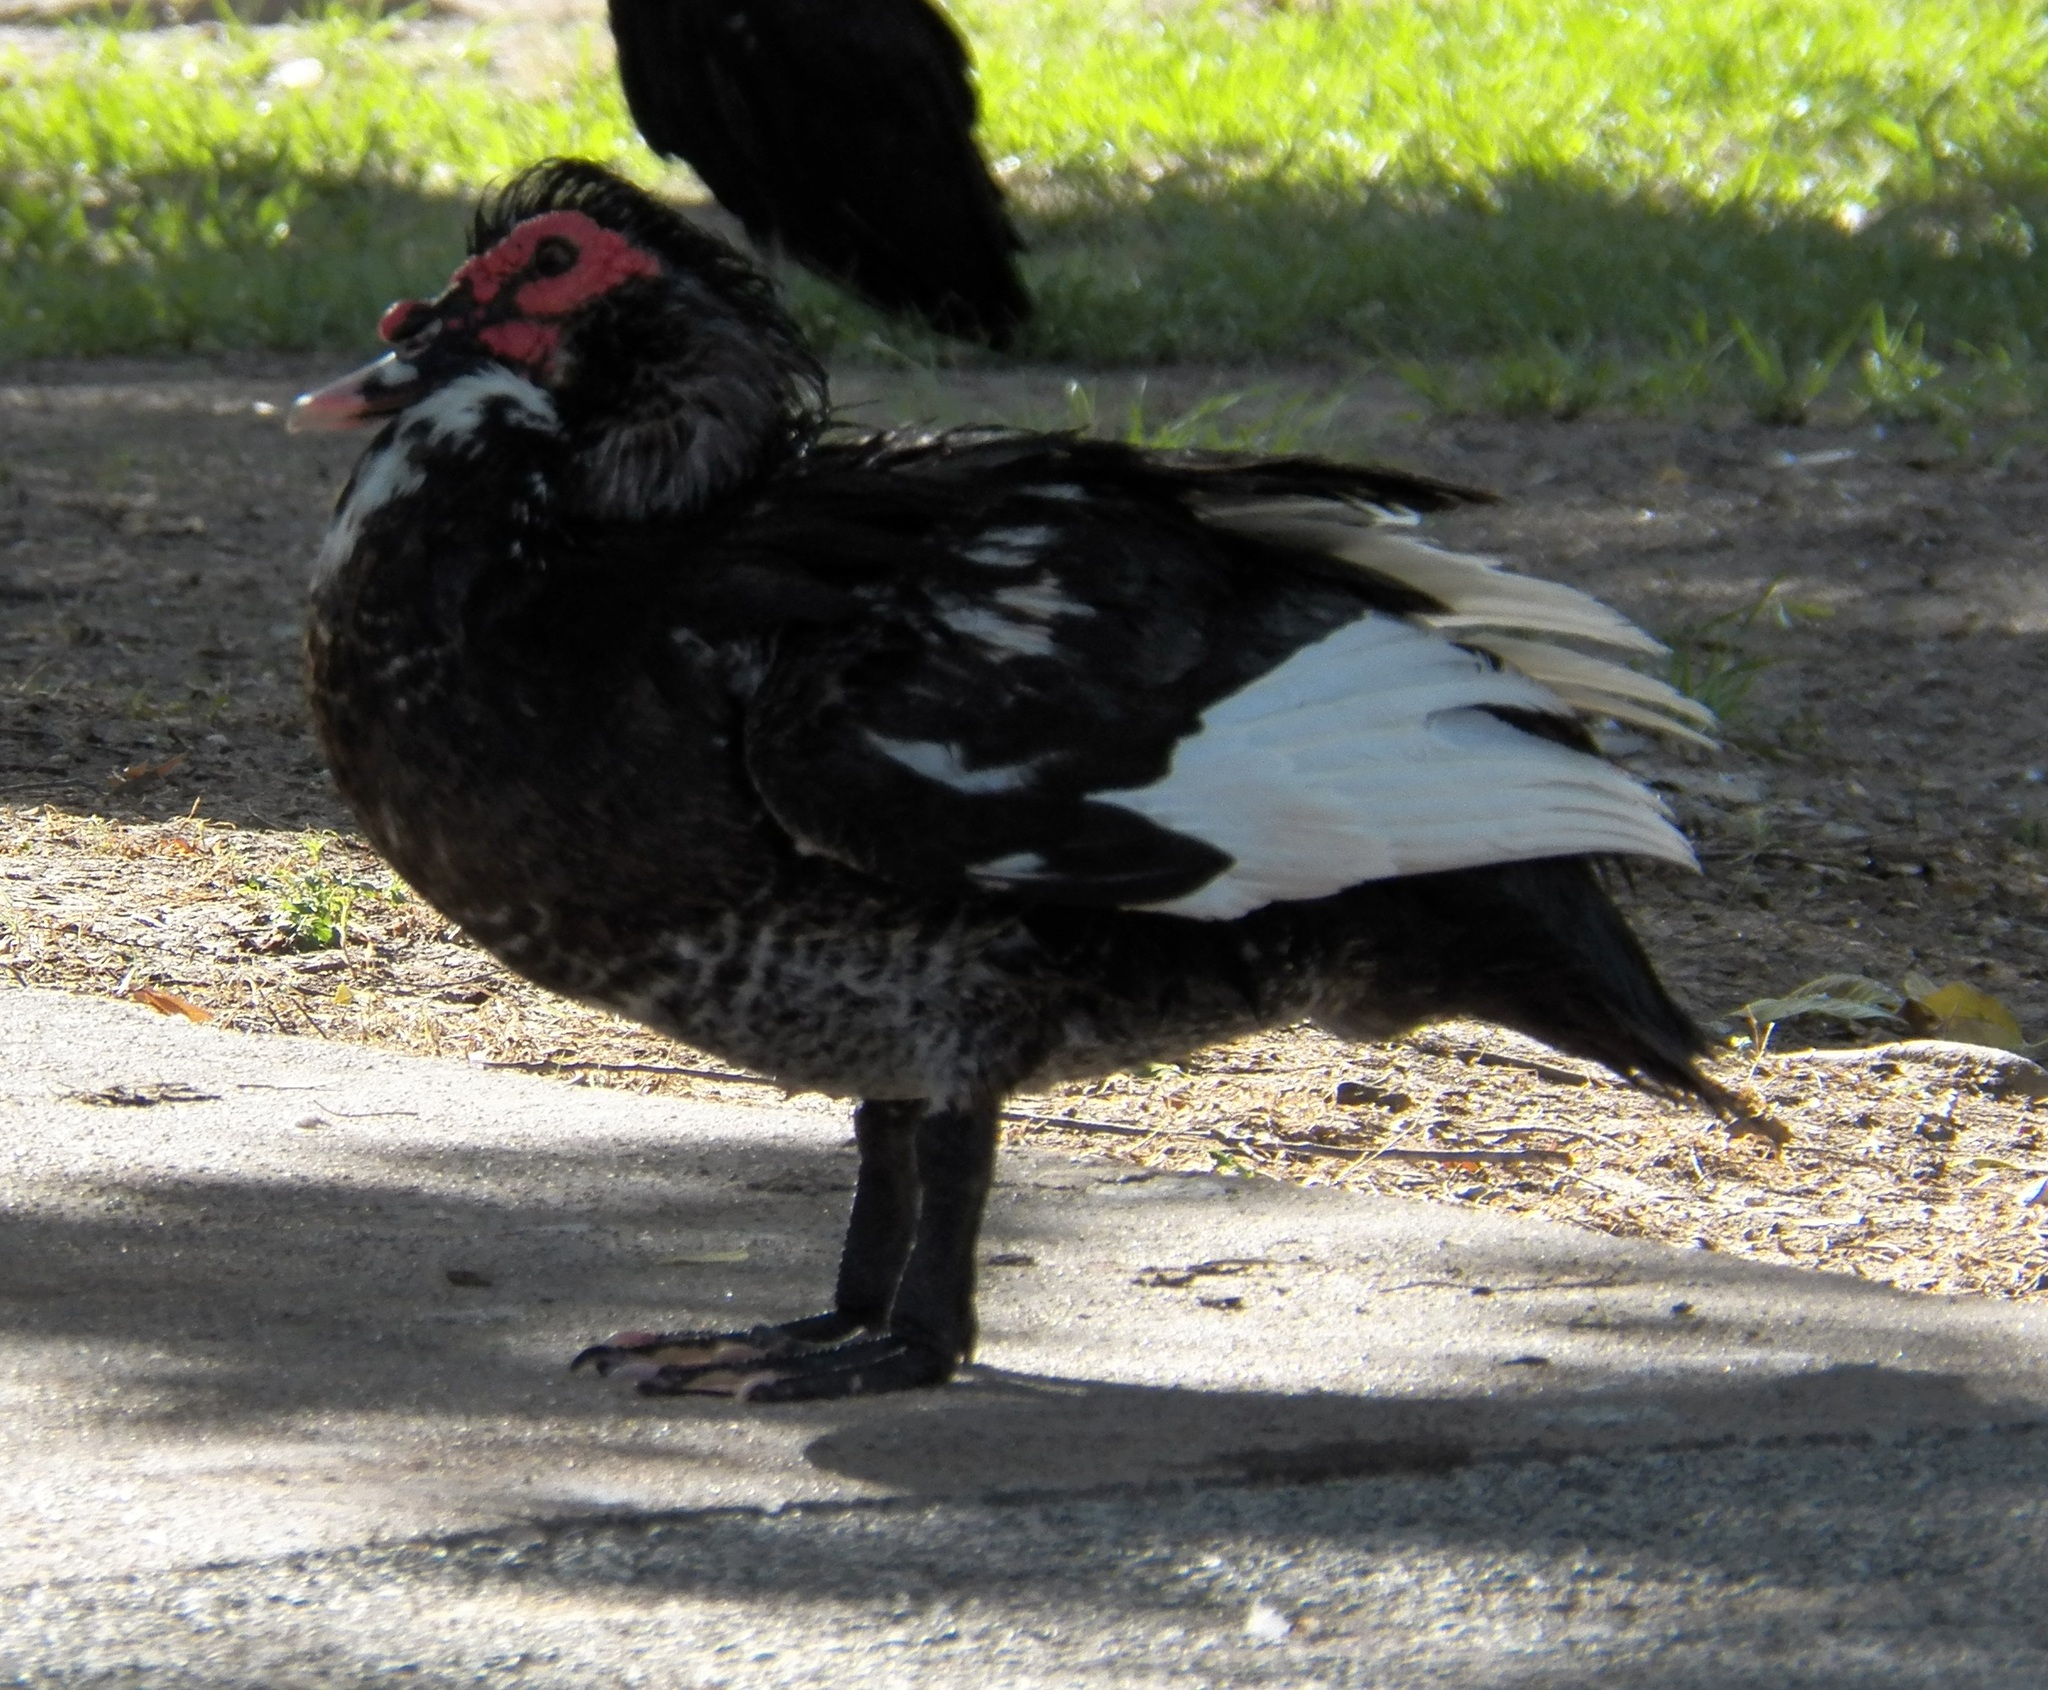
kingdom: Animalia
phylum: Chordata
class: Aves
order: Anseriformes
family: Anatidae
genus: Cairina
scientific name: Cairina moschata
